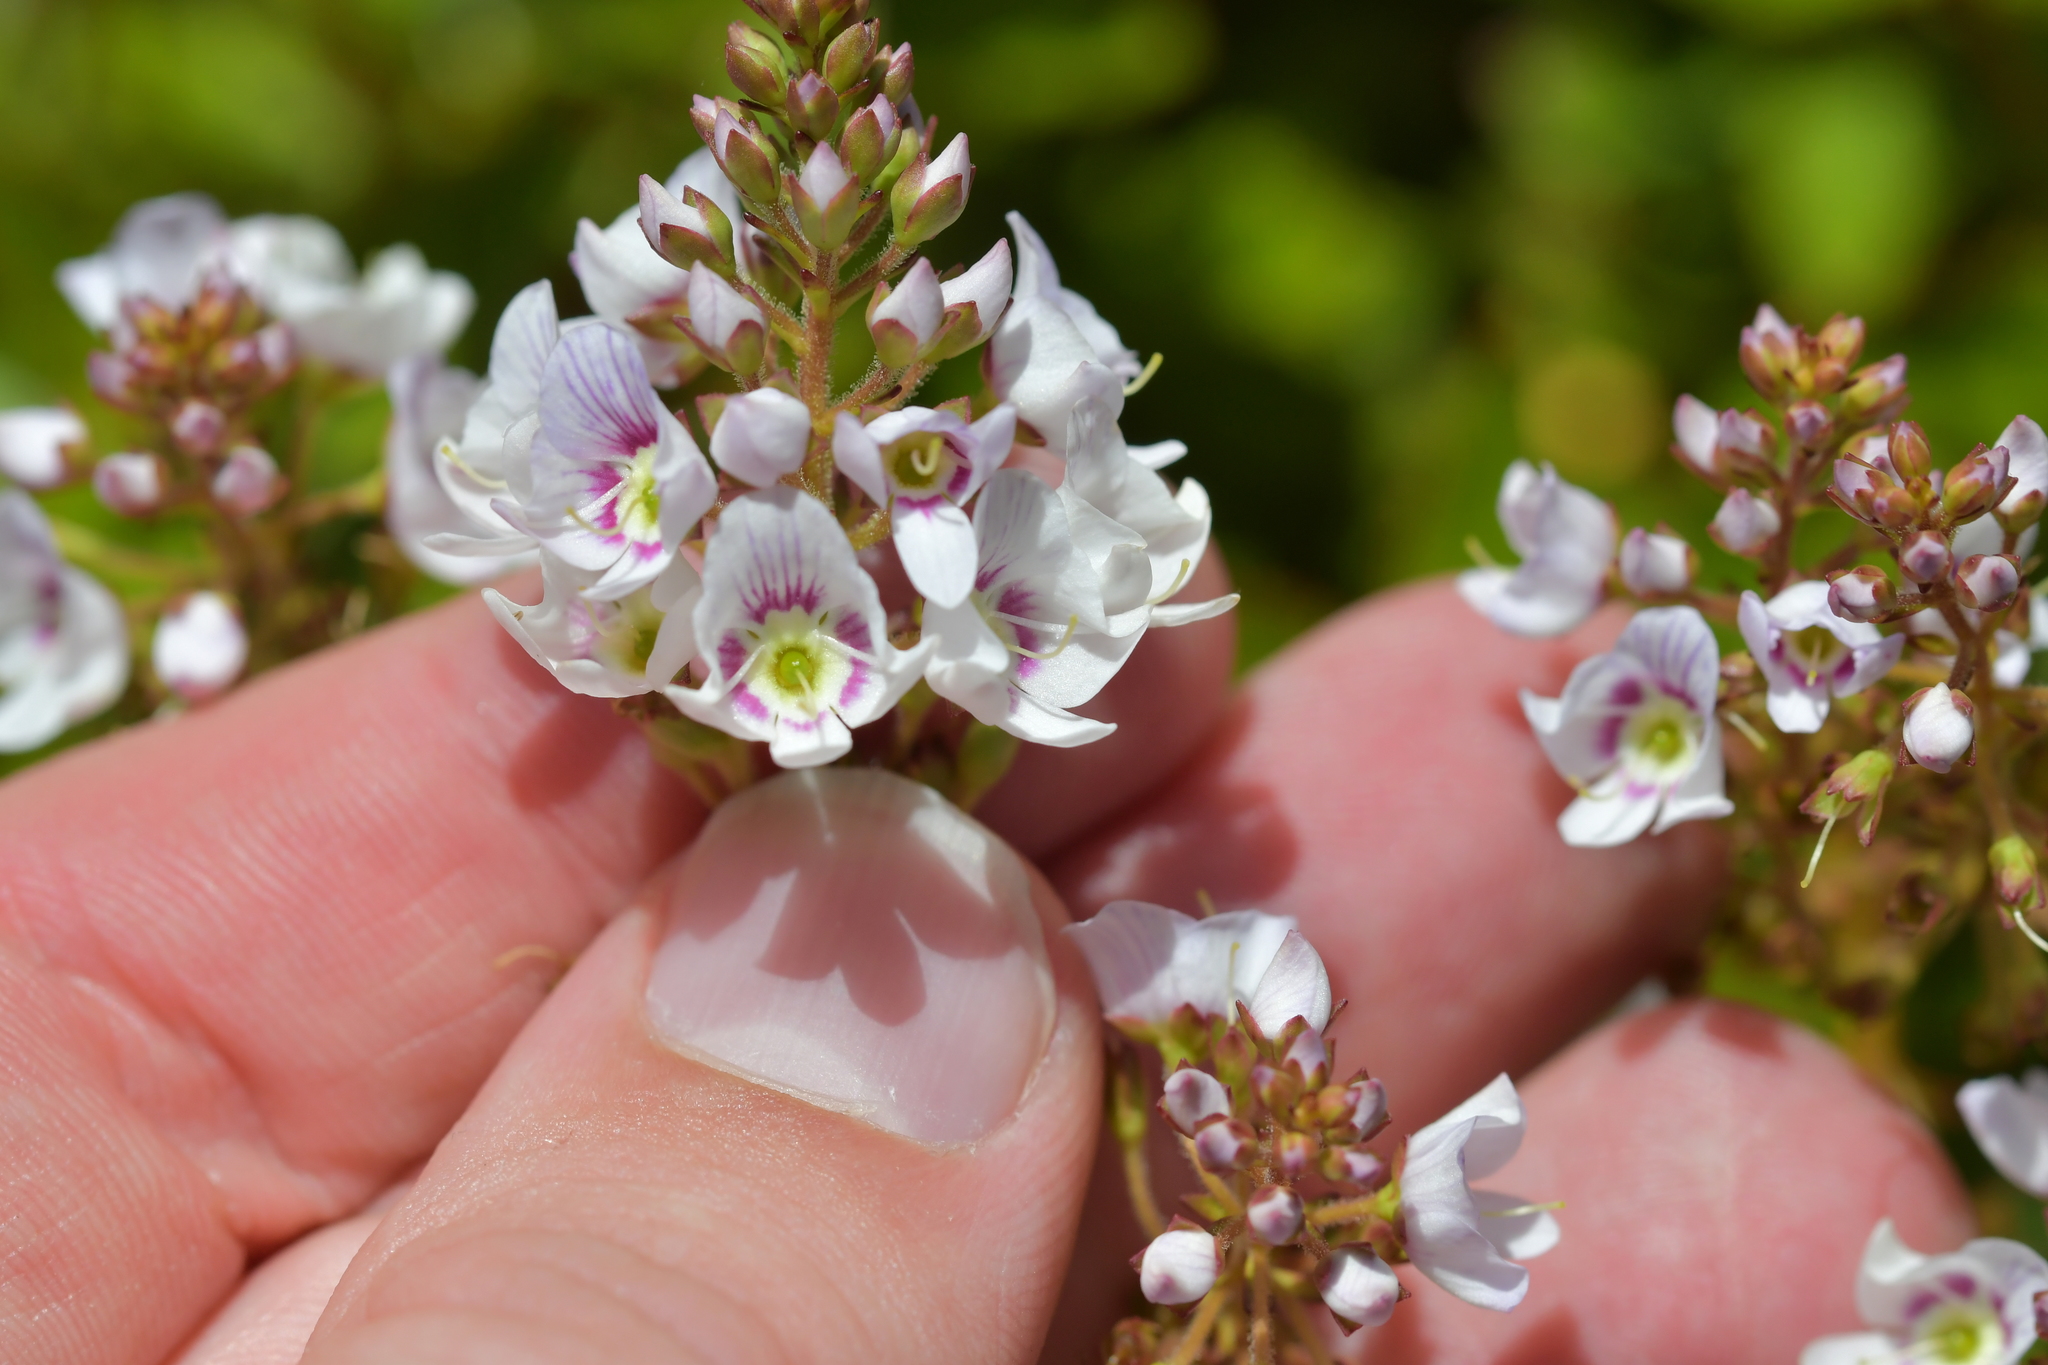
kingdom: Plantae
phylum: Tracheophyta
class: Magnoliopsida
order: Lamiales
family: Plantaginaceae
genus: Veronica
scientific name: Veronica lanceolata
